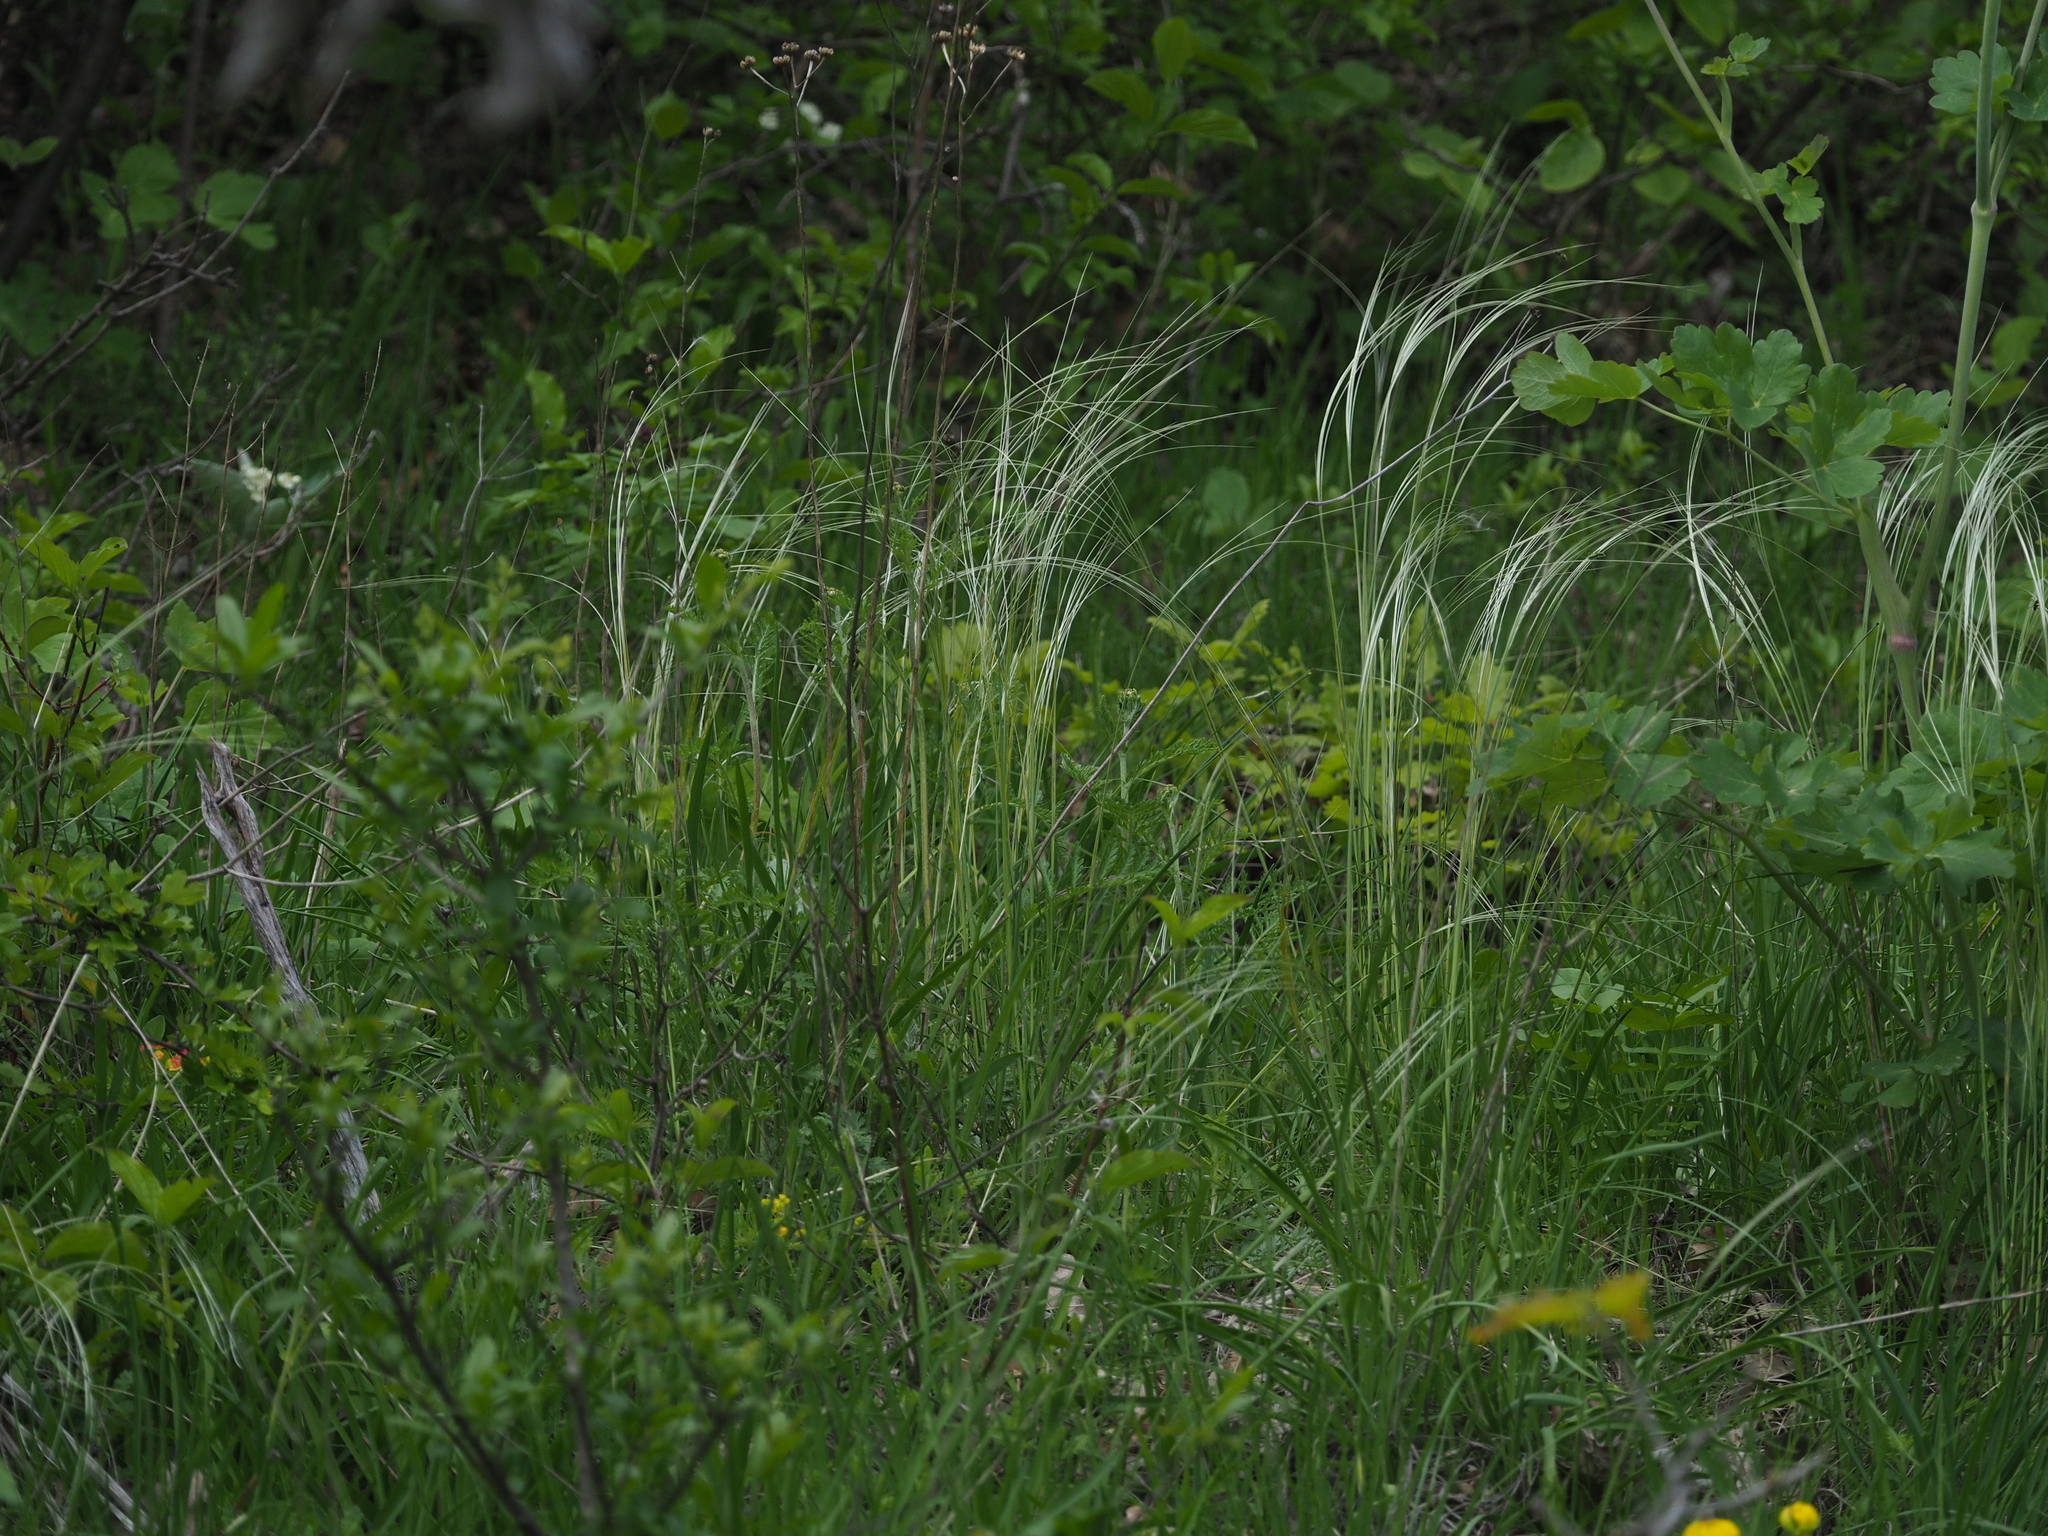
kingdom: Plantae
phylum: Tracheophyta
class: Liliopsida
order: Poales
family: Poaceae
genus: Stipa
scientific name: Stipa pennata
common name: European feather grass
